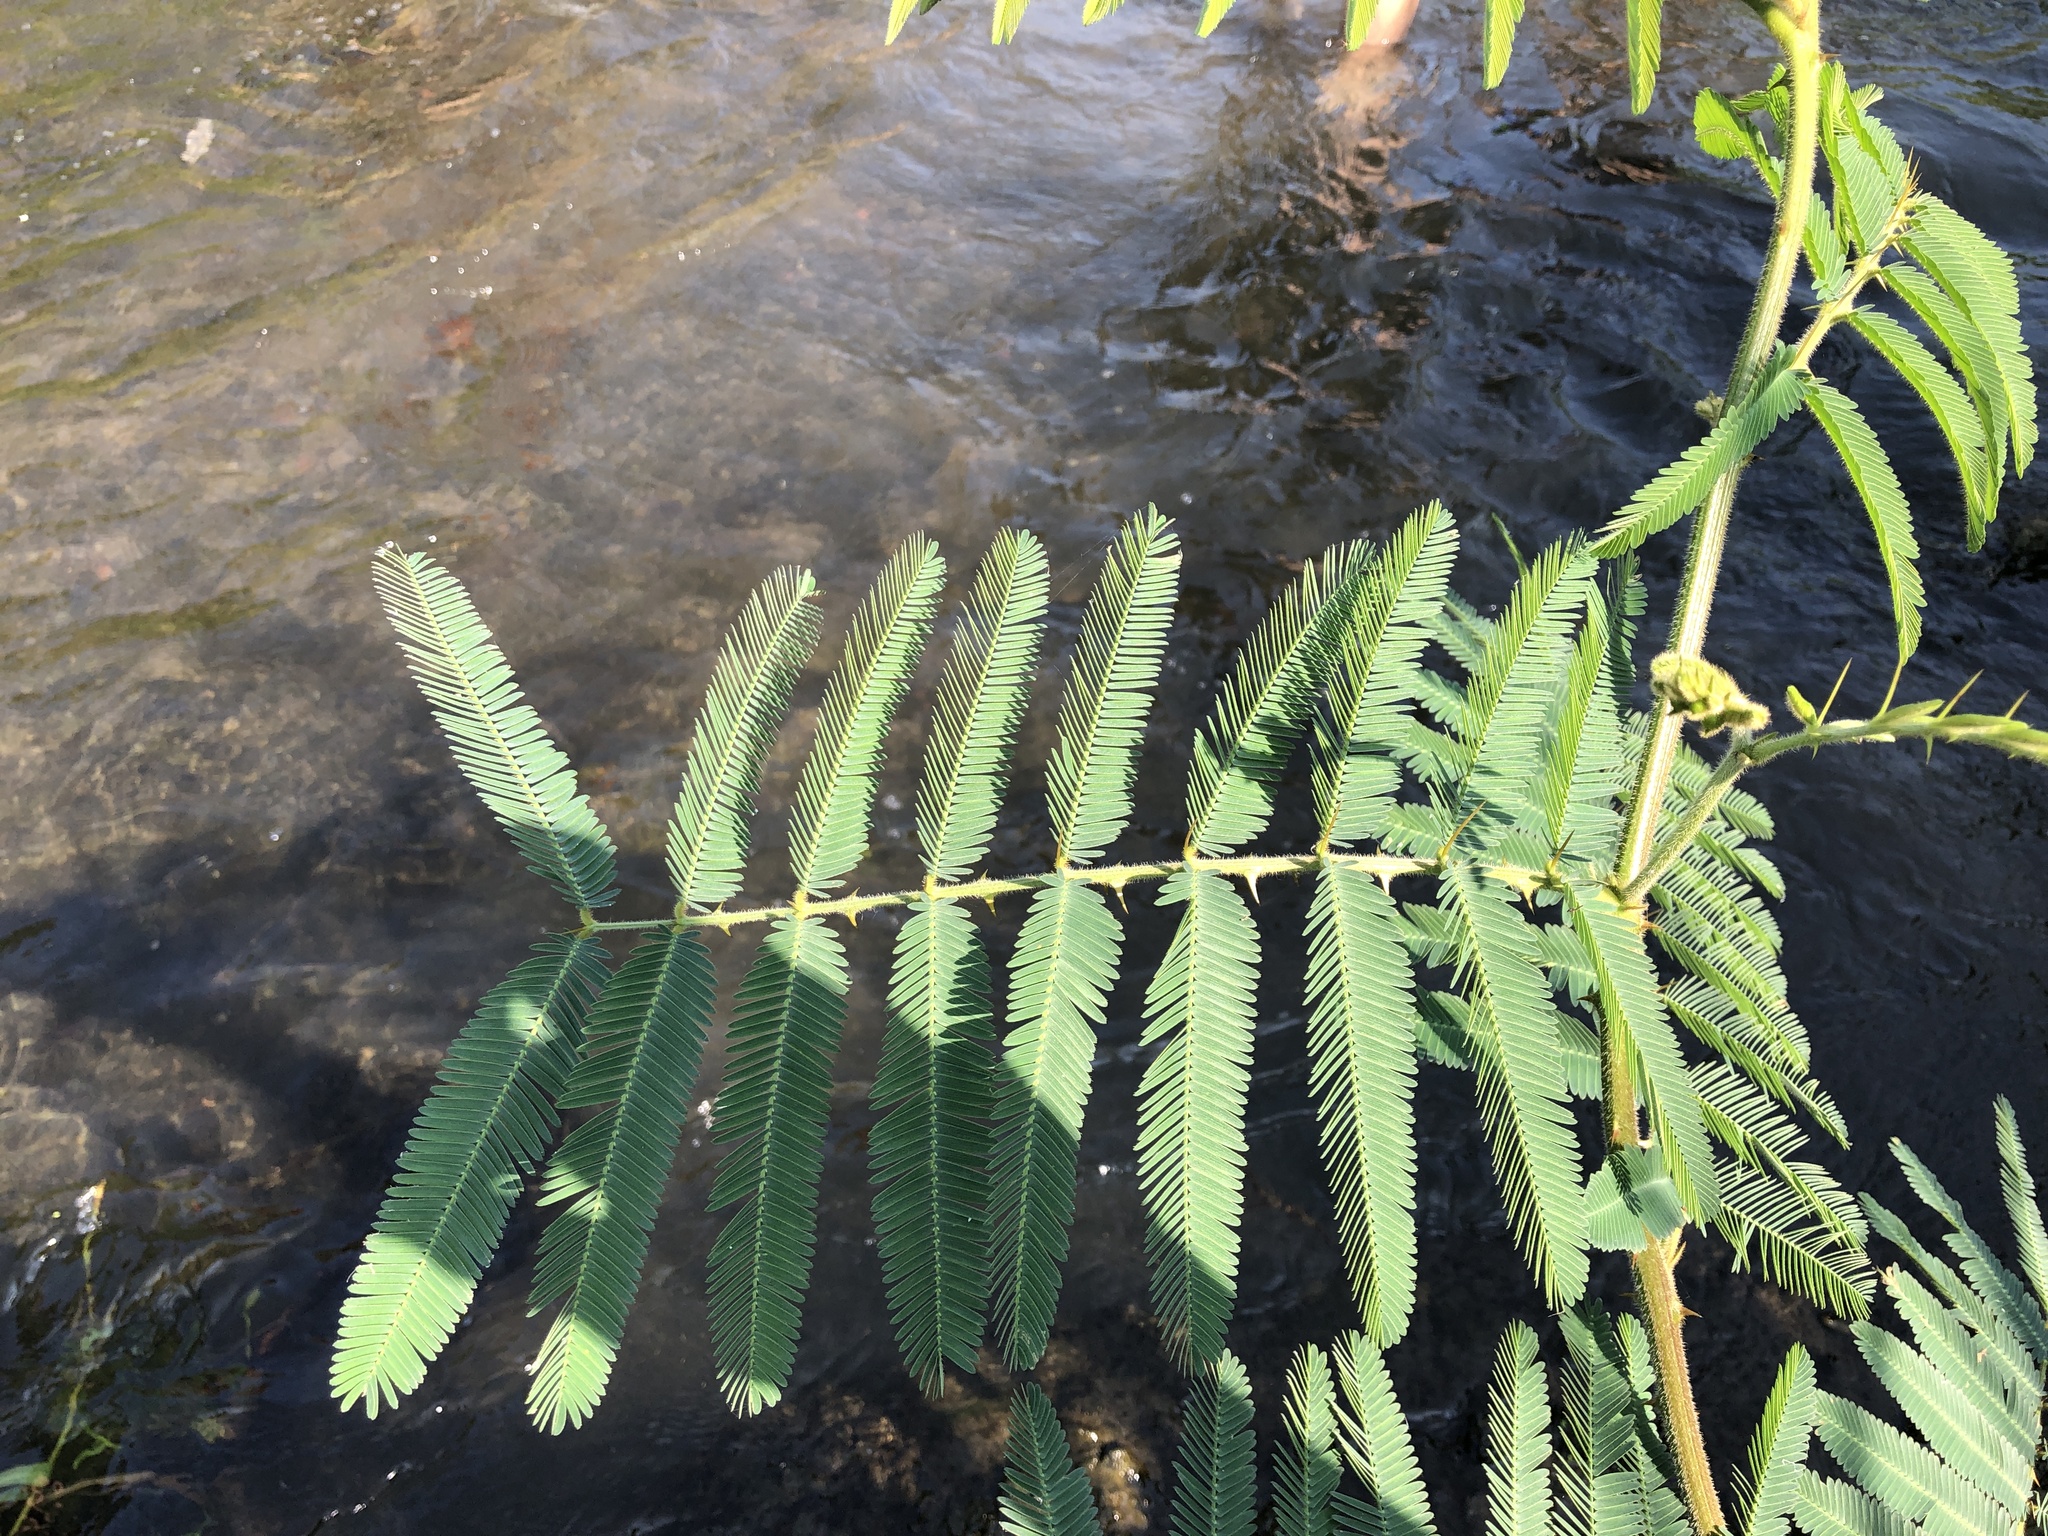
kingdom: Plantae
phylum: Tracheophyta
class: Magnoliopsida
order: Fabales
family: Fabaceae
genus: Mimosa
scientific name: Mimosa pigra
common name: Black mimosa
